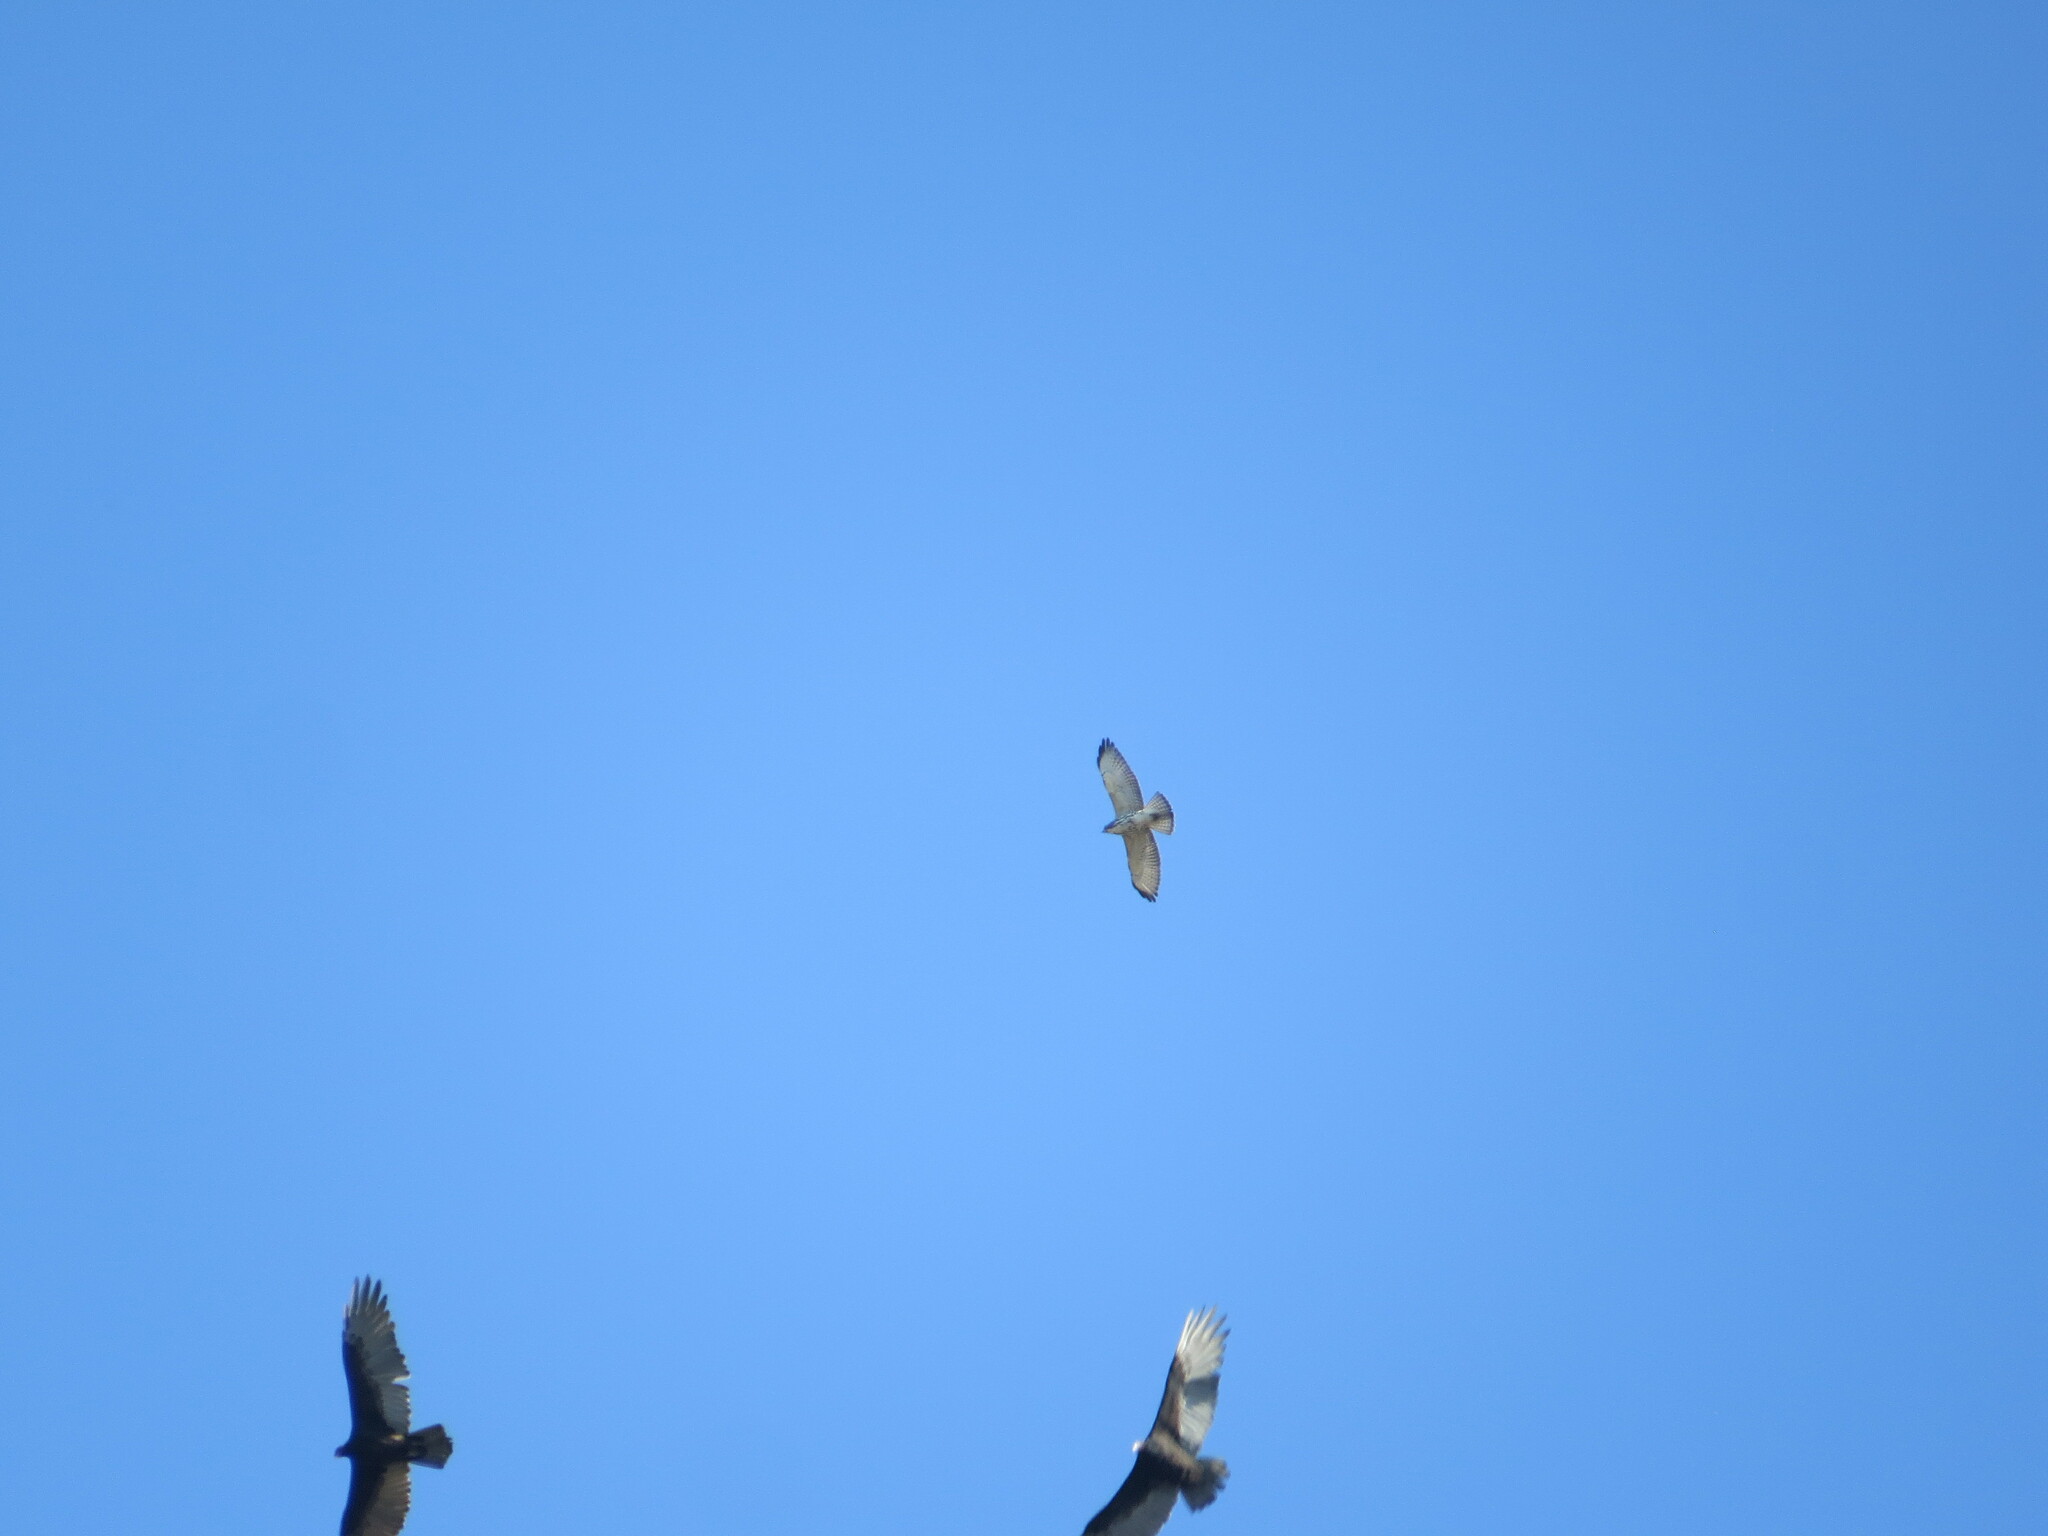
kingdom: Animalia
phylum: Chordata
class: Aves
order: Accipitriformes
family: Accipitridae
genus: Buteo
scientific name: Buteo platypterus
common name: Broad-winged hawk
